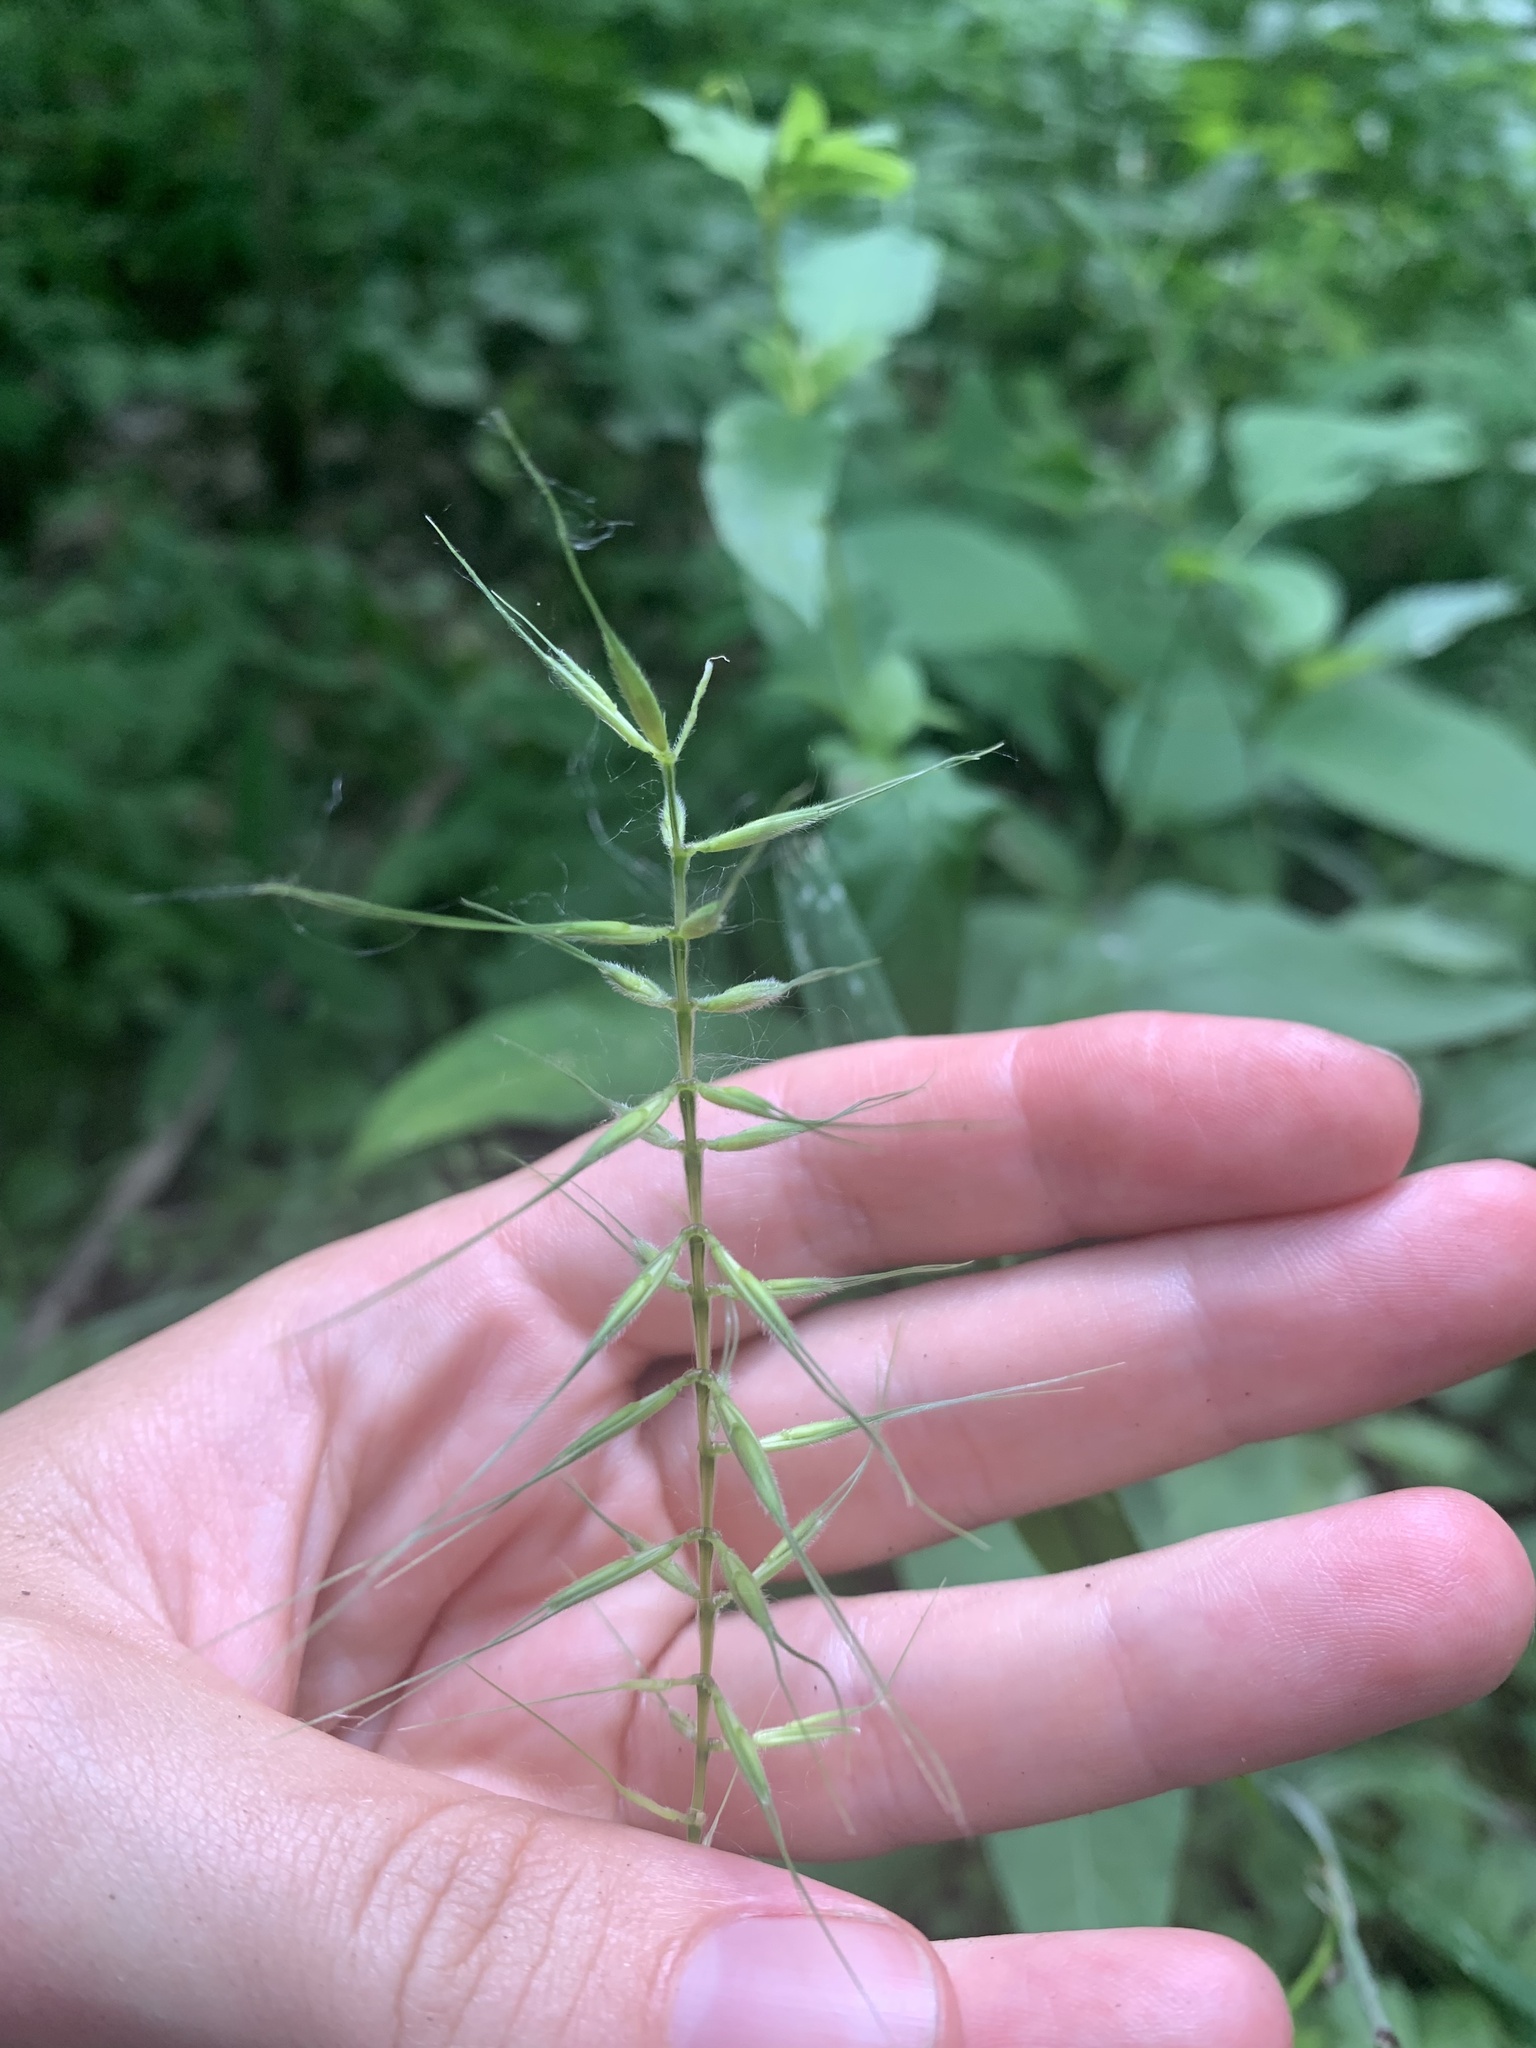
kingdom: Plantae
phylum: Tracheophyta
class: Liliopsida
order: Poales
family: Poaceae
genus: Elymus
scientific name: Elymus hystrix
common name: Bottlebrush grass
